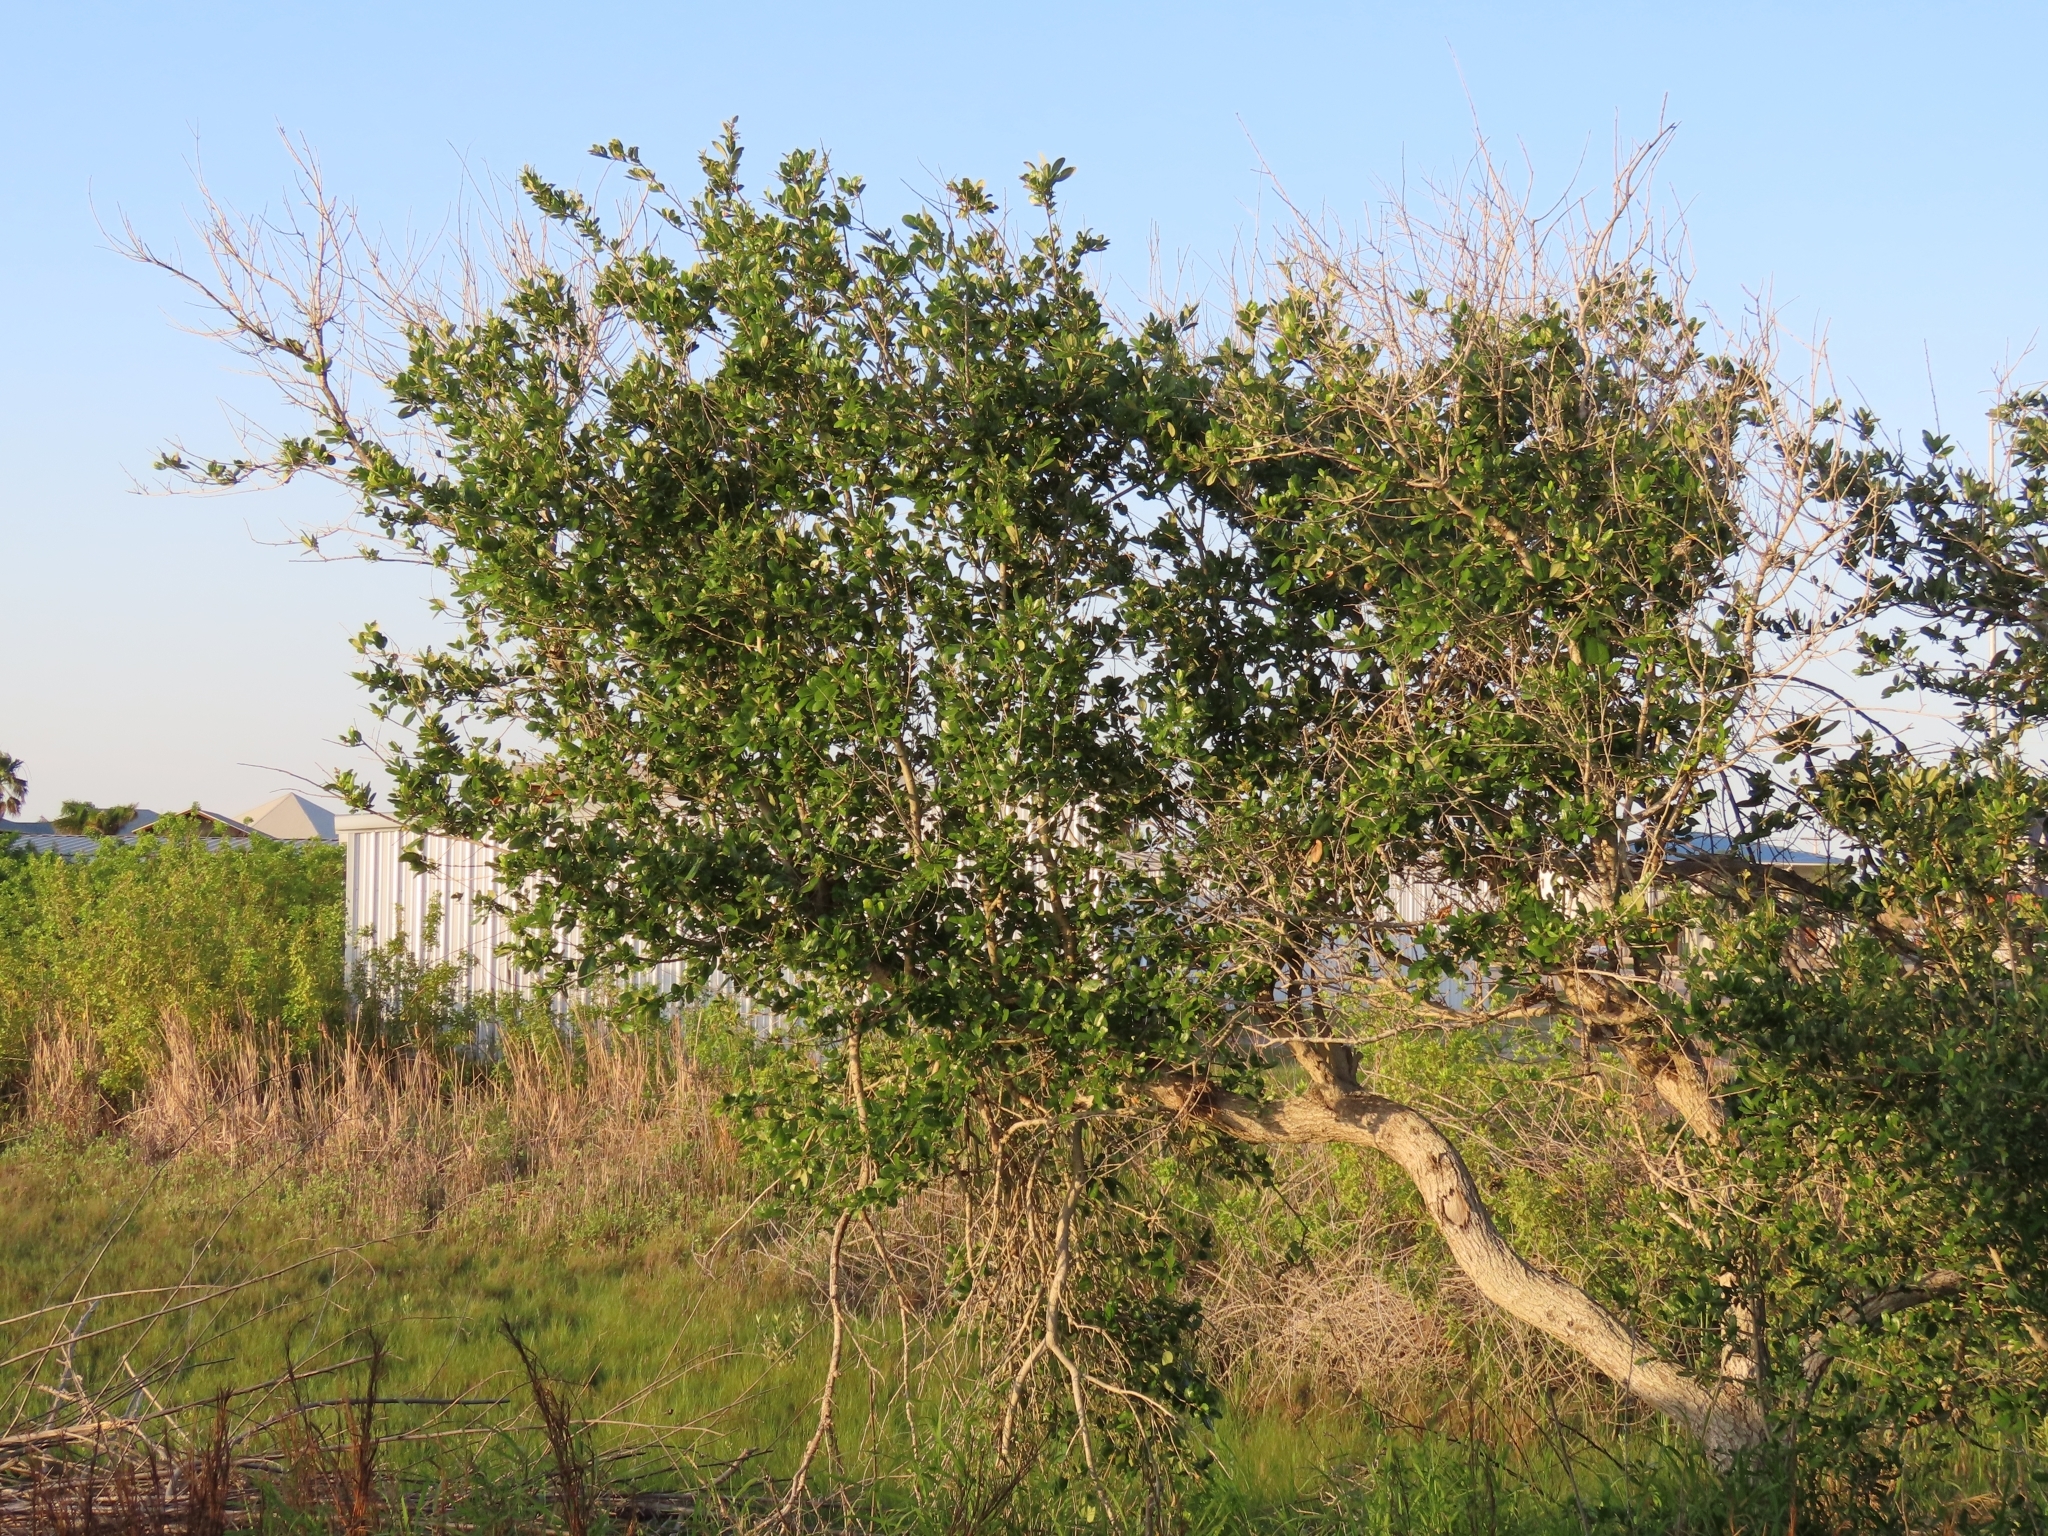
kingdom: Plantae
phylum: Tracheophyta
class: Magnoliopsida
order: Fagales
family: Fagaceae
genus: Quercus
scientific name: Quercus fusiformis
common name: Texas live oak
